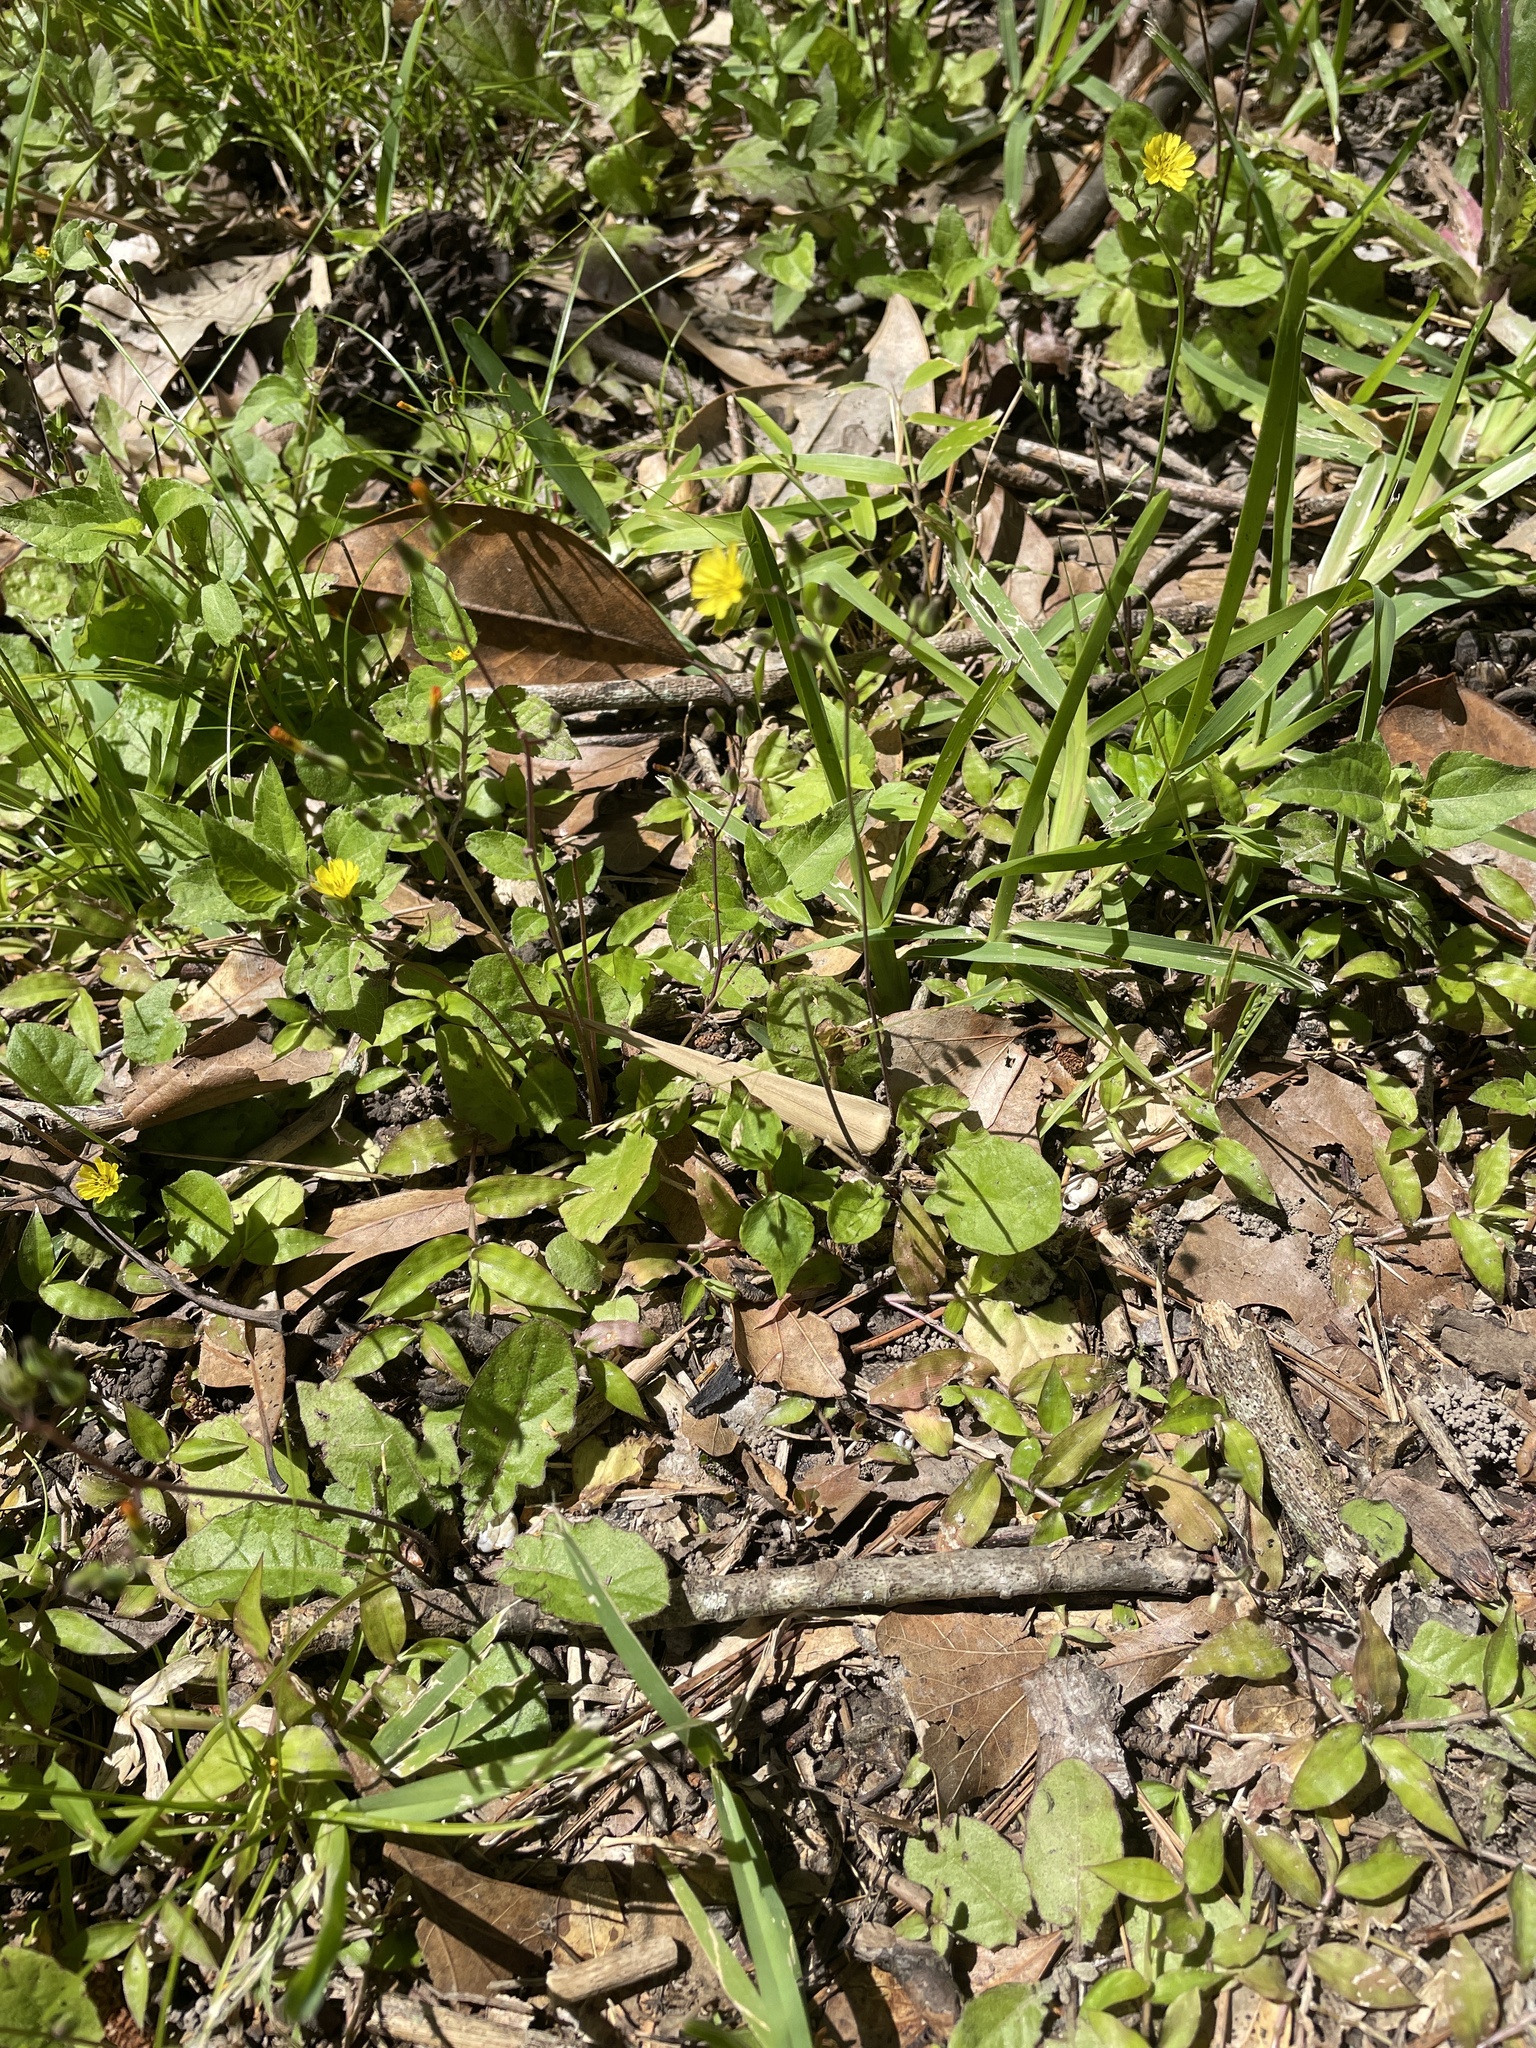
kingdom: Plantae
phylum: Tracheophyta
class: Magnoliopsida
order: Asterales
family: Asteraceae
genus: Youngia
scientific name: Youngia japonica
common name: Oriental false hawksbeard
